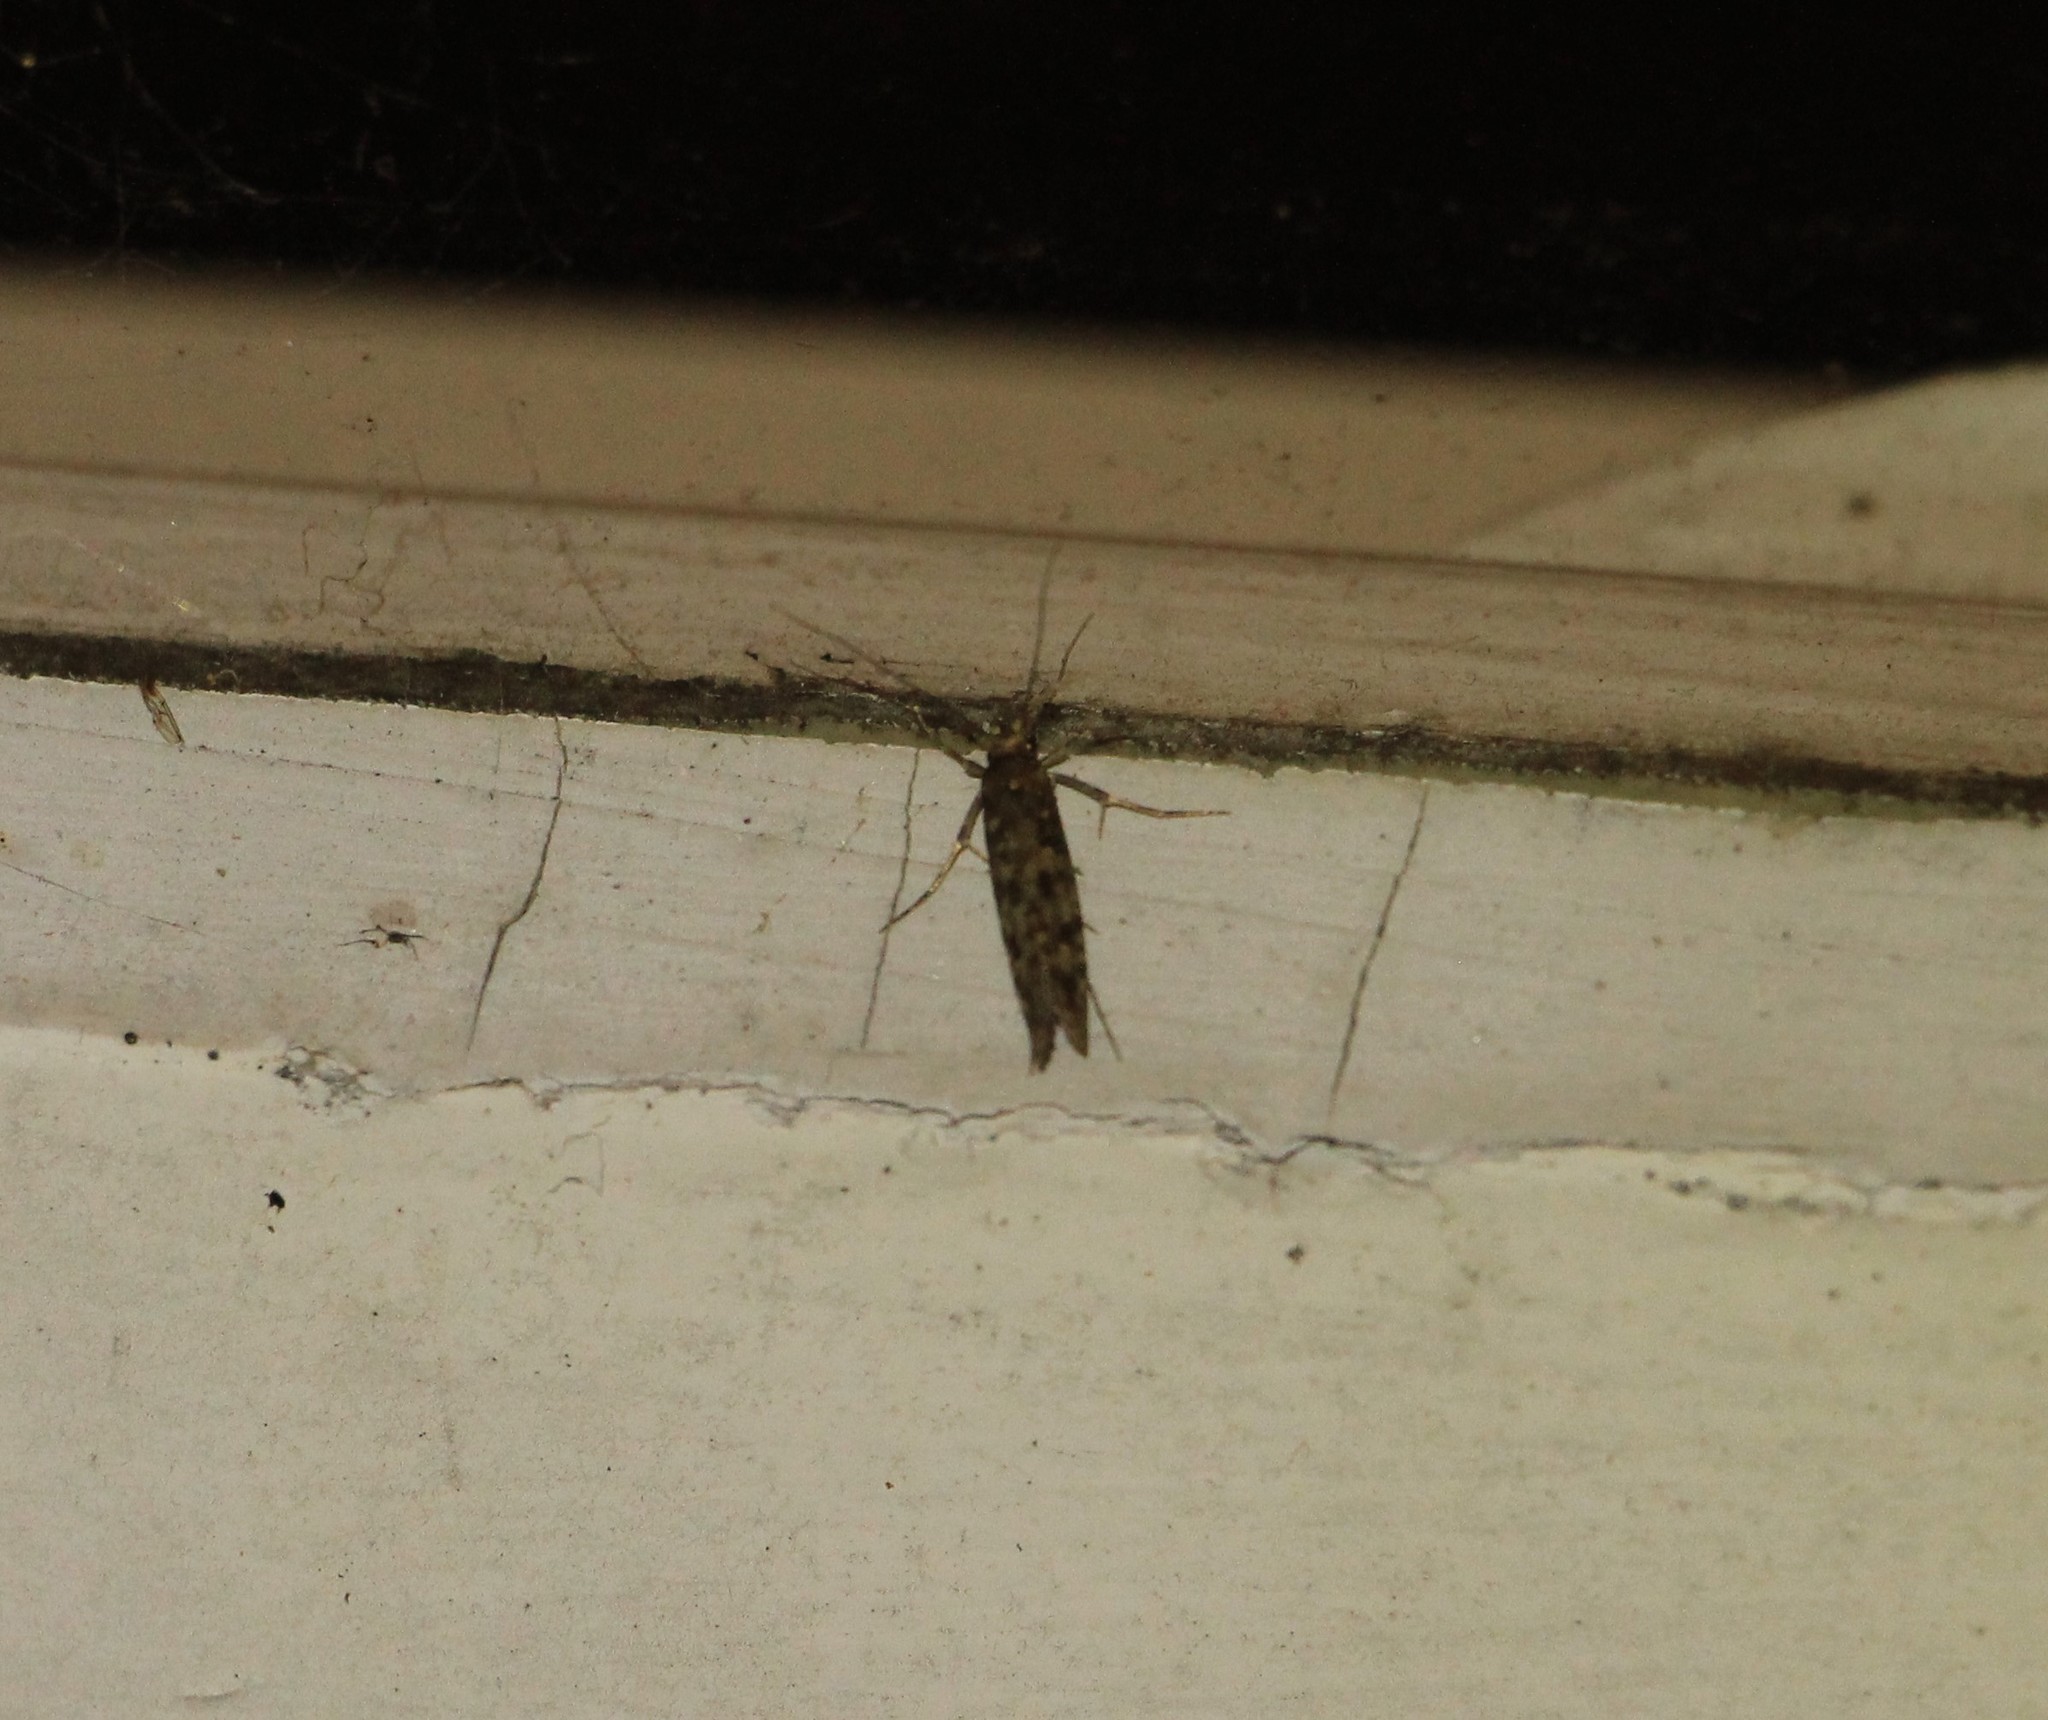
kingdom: Animalia
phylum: Arthropoda
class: Insecta
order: Lepidoptera
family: Tineidae
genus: Lindera
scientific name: Lindera tessellatella
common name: Moth
